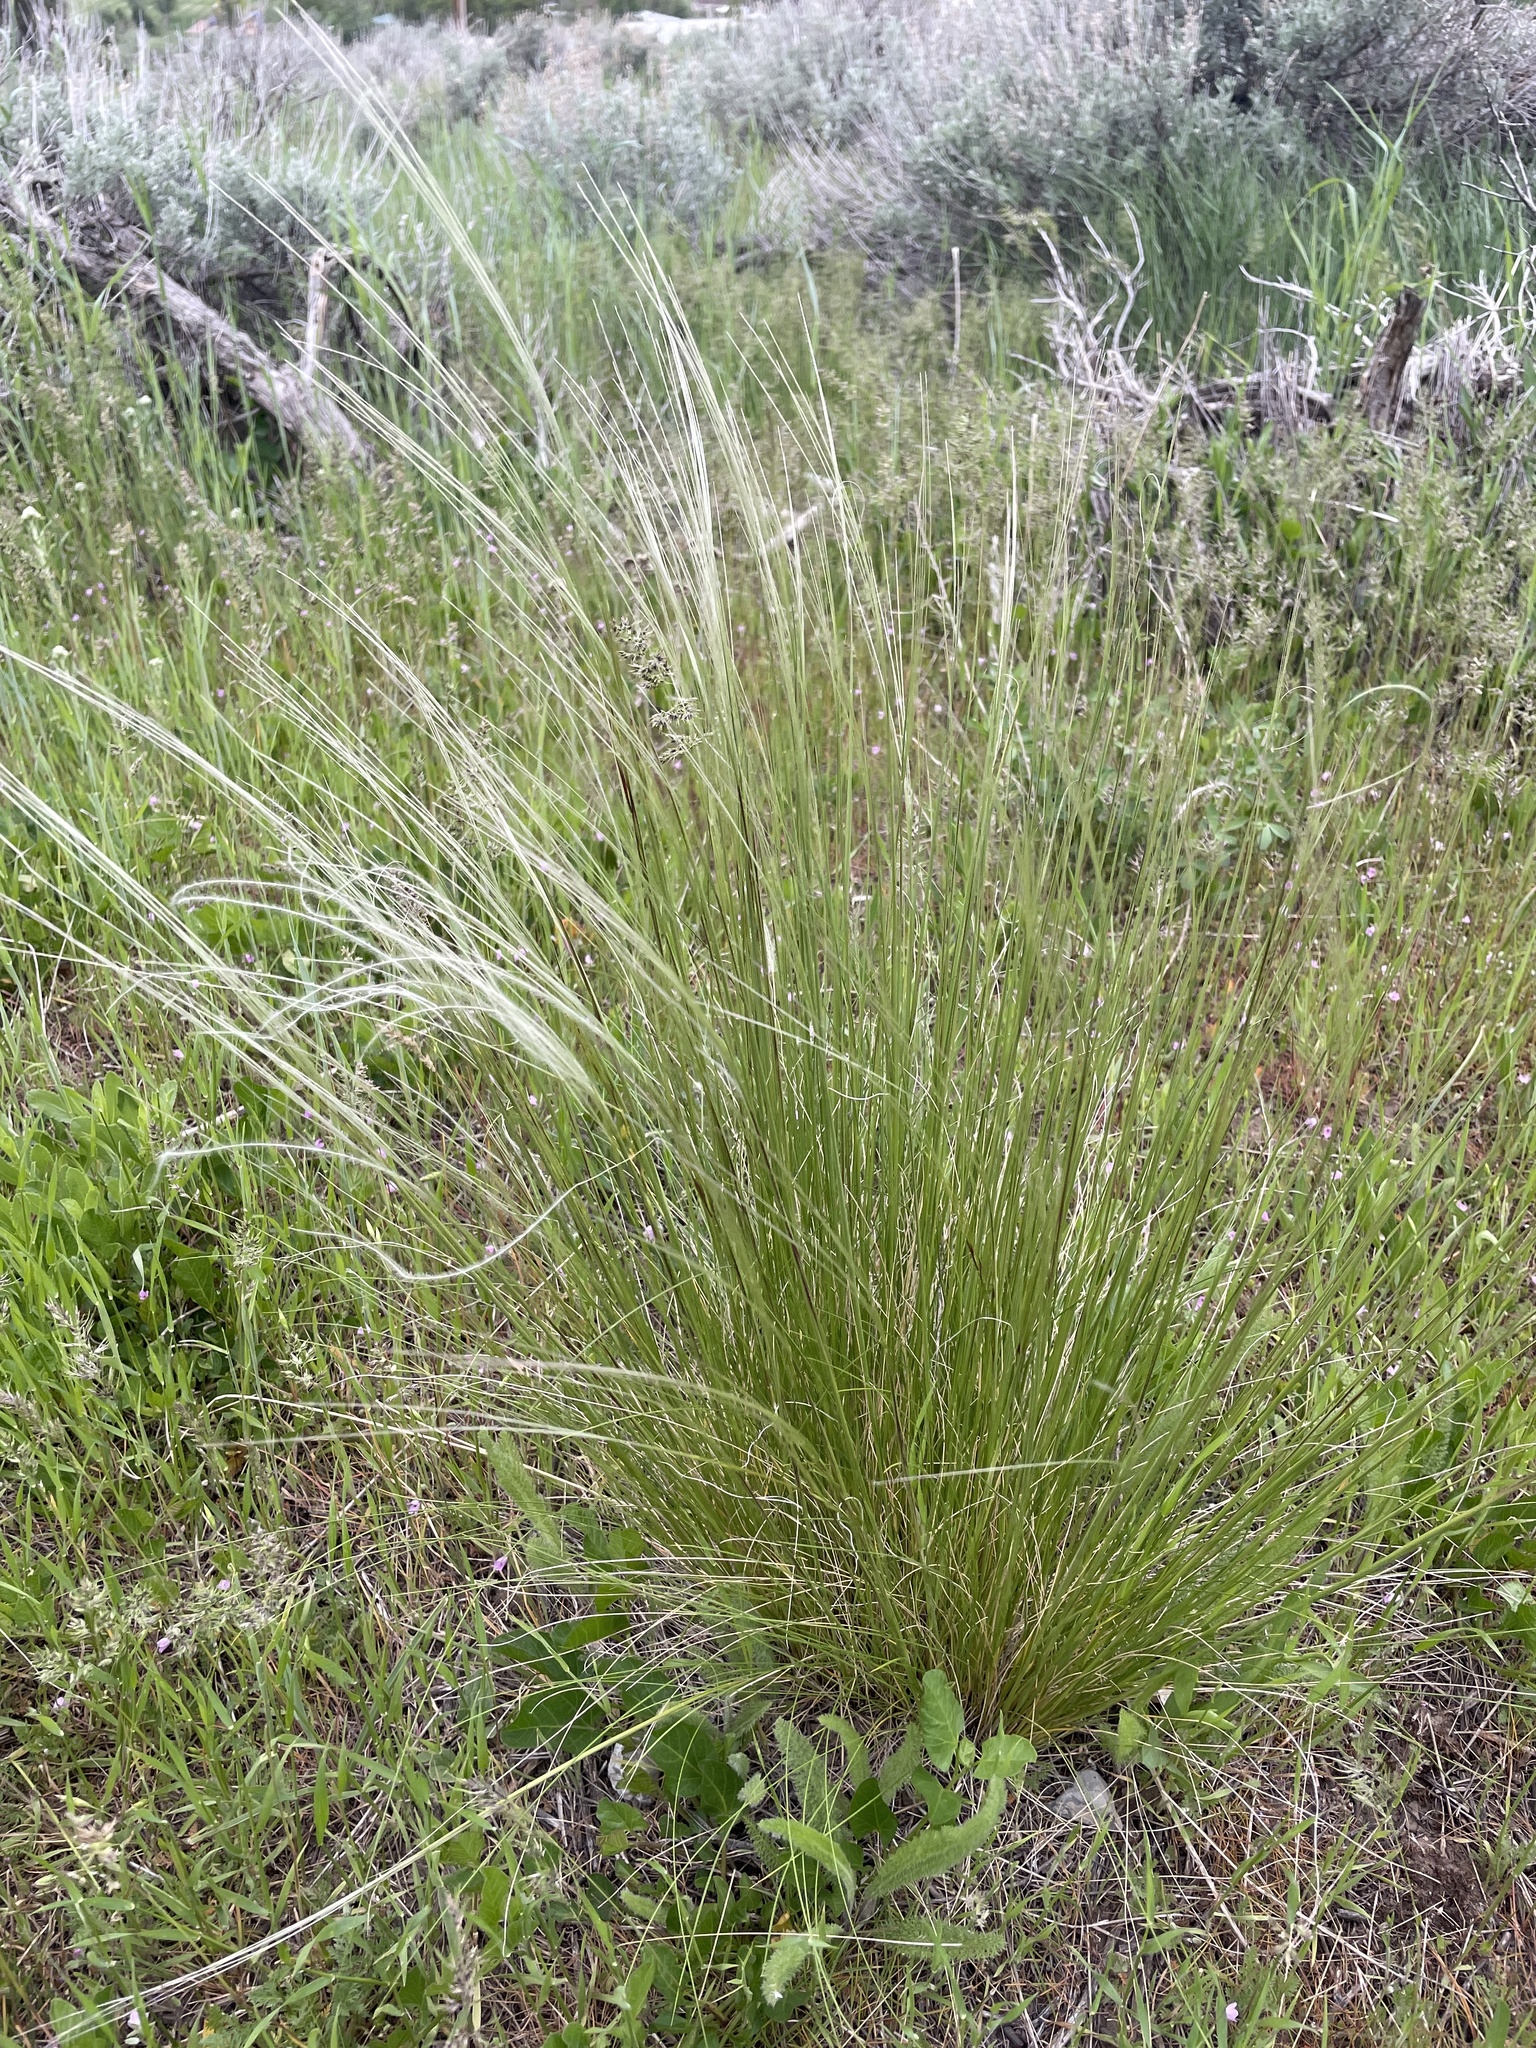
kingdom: Plantae
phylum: Tracheophyta
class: Liliopsida
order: Poales
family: Poaceae
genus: Hesperostipa
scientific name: Hesperostipa neomexicana
